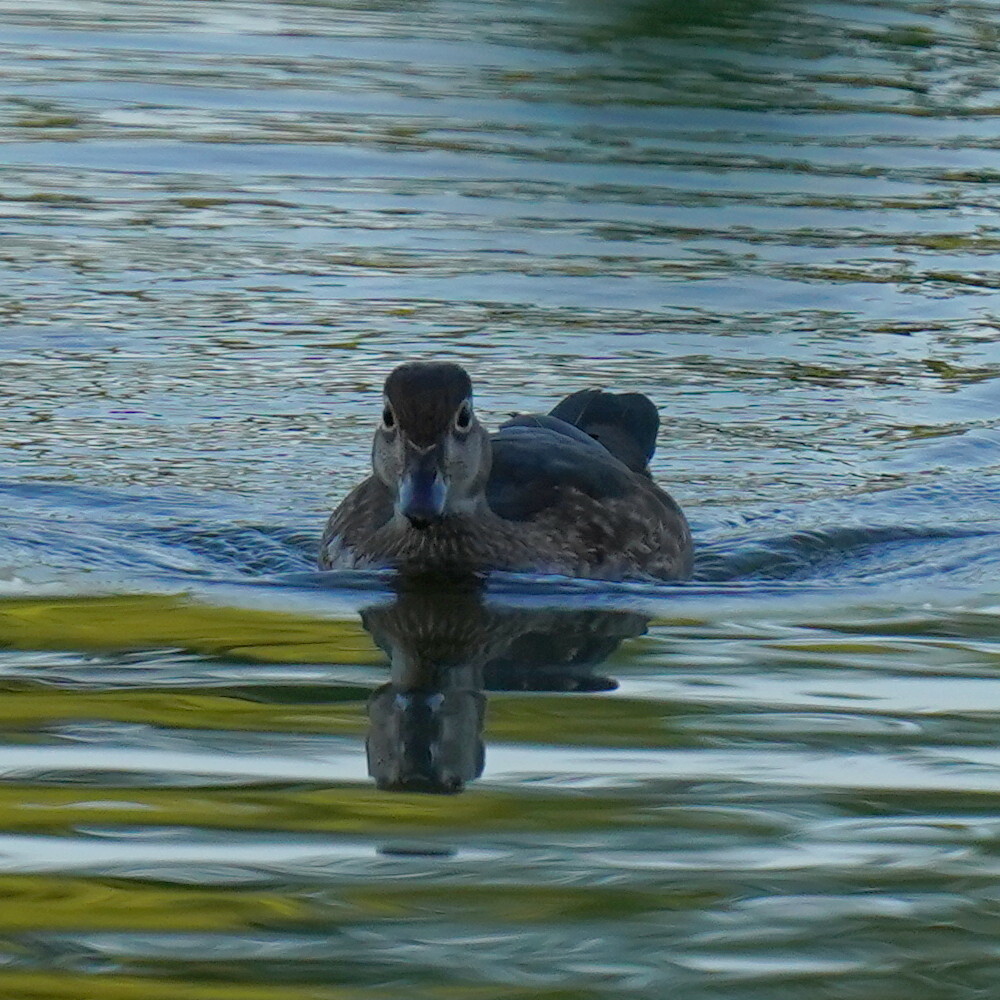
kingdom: Animalia
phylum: Chordata
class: Aves
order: Anseriformes
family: Anatidae
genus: Aix
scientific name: Aix sponsa
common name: Wood duck
